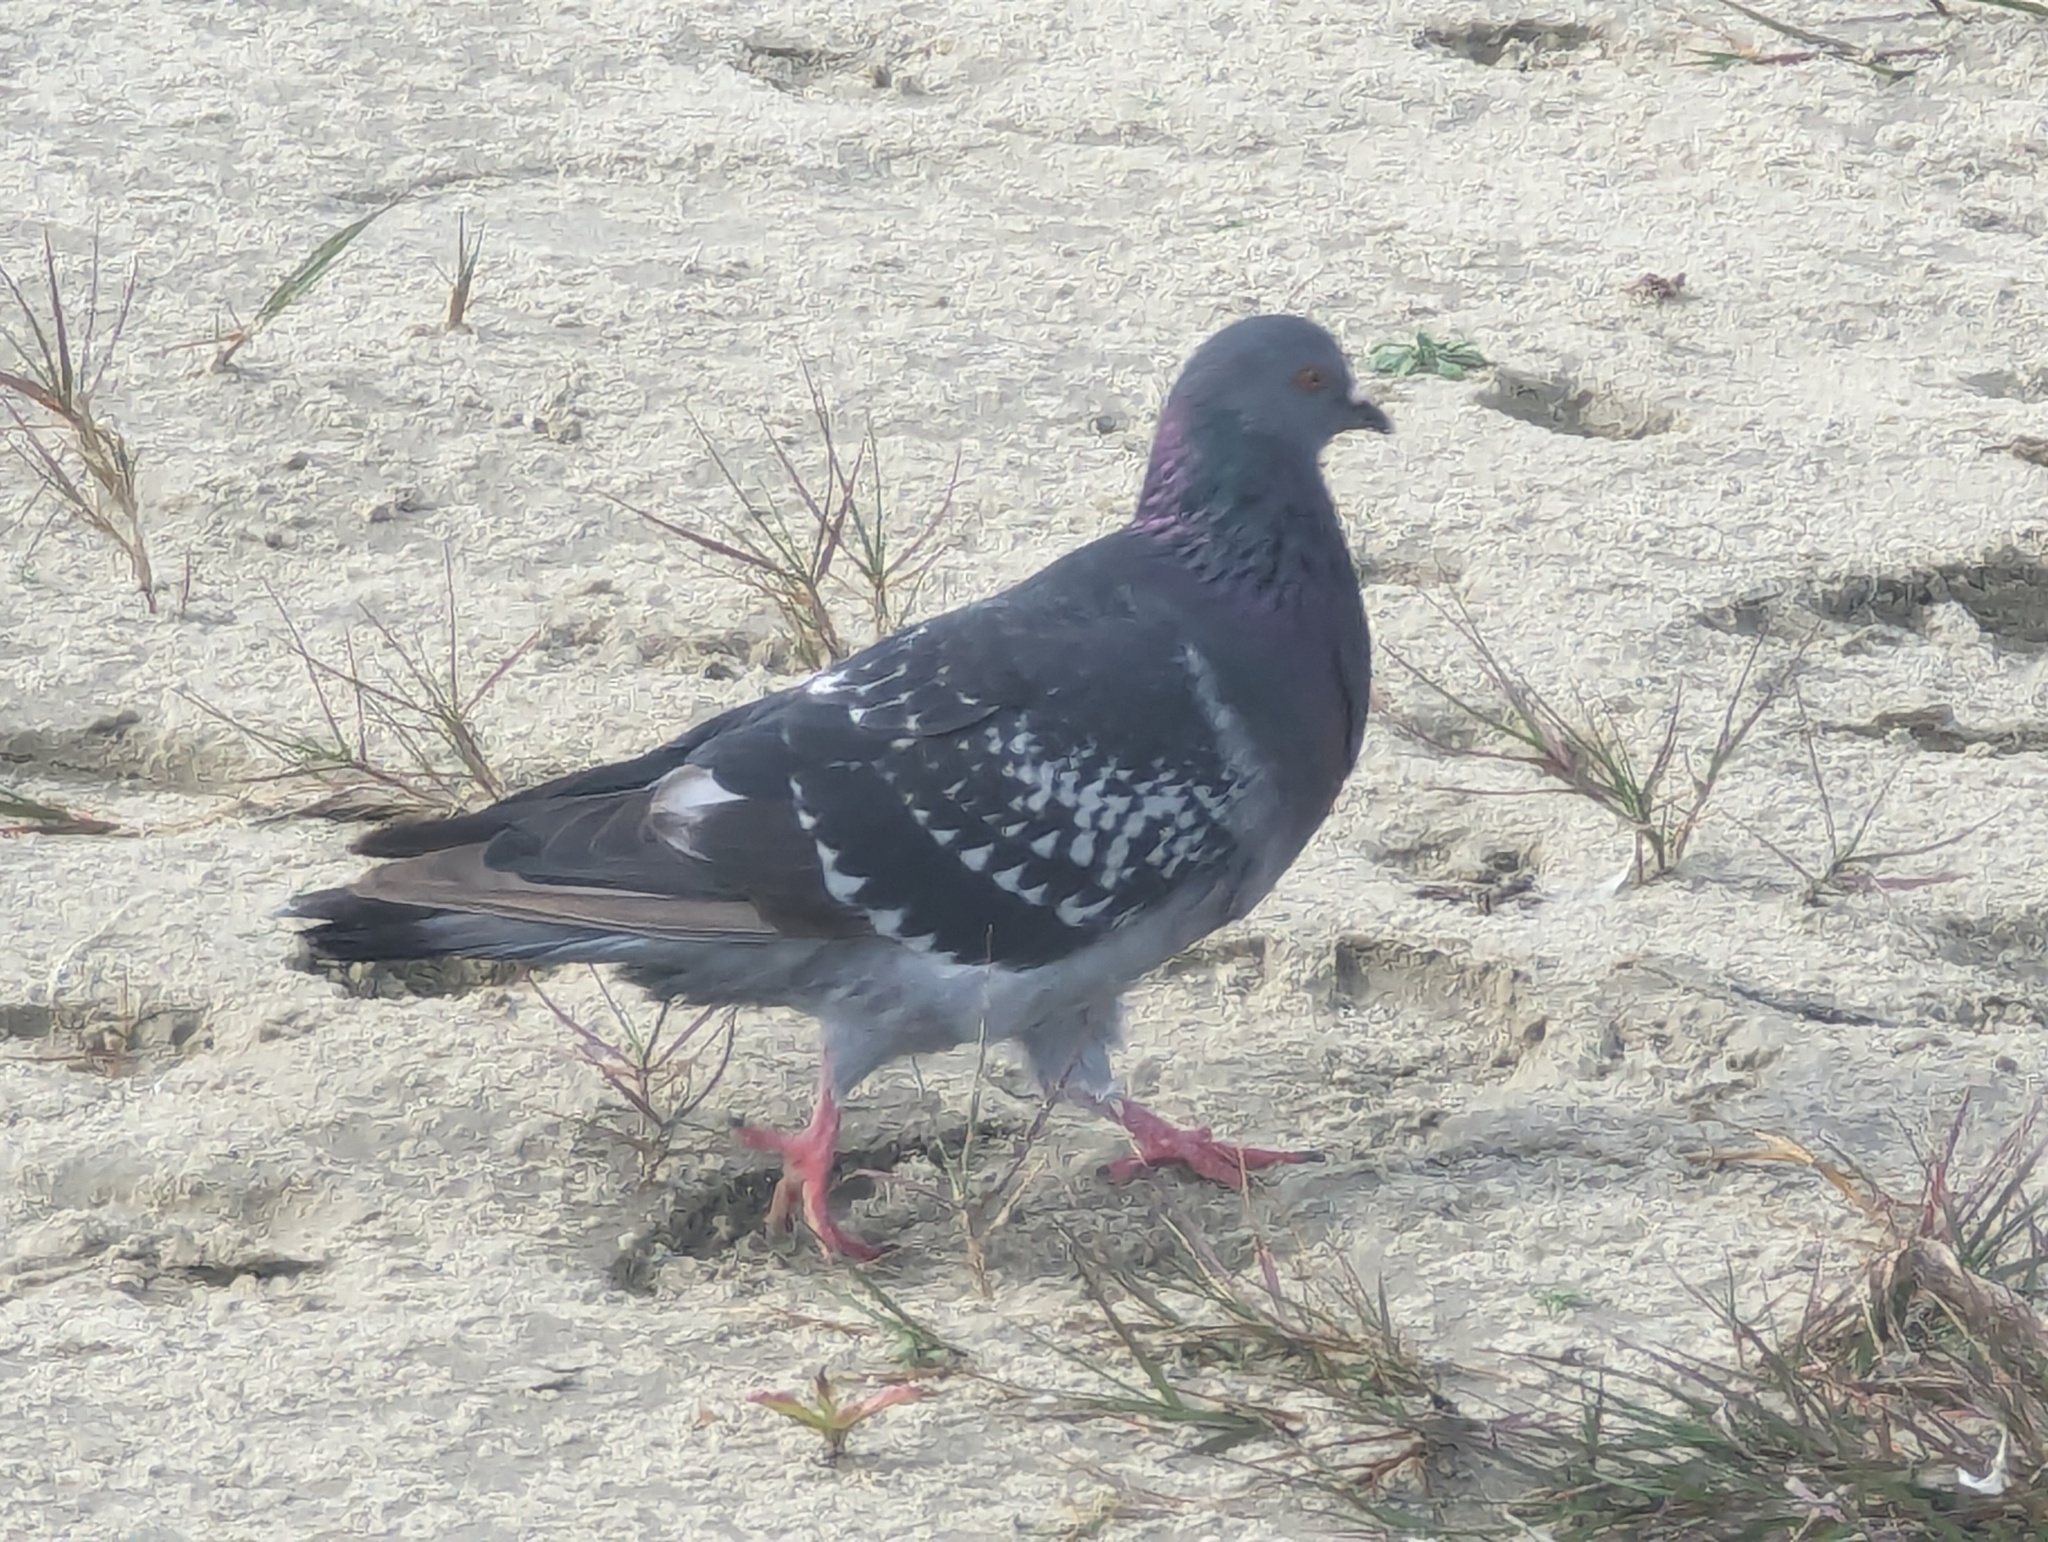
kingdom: Animalia
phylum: Chordata
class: Aves
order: Columbiformes
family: Columbidae
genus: Columba
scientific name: Columba livia
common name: Rock pigeon
